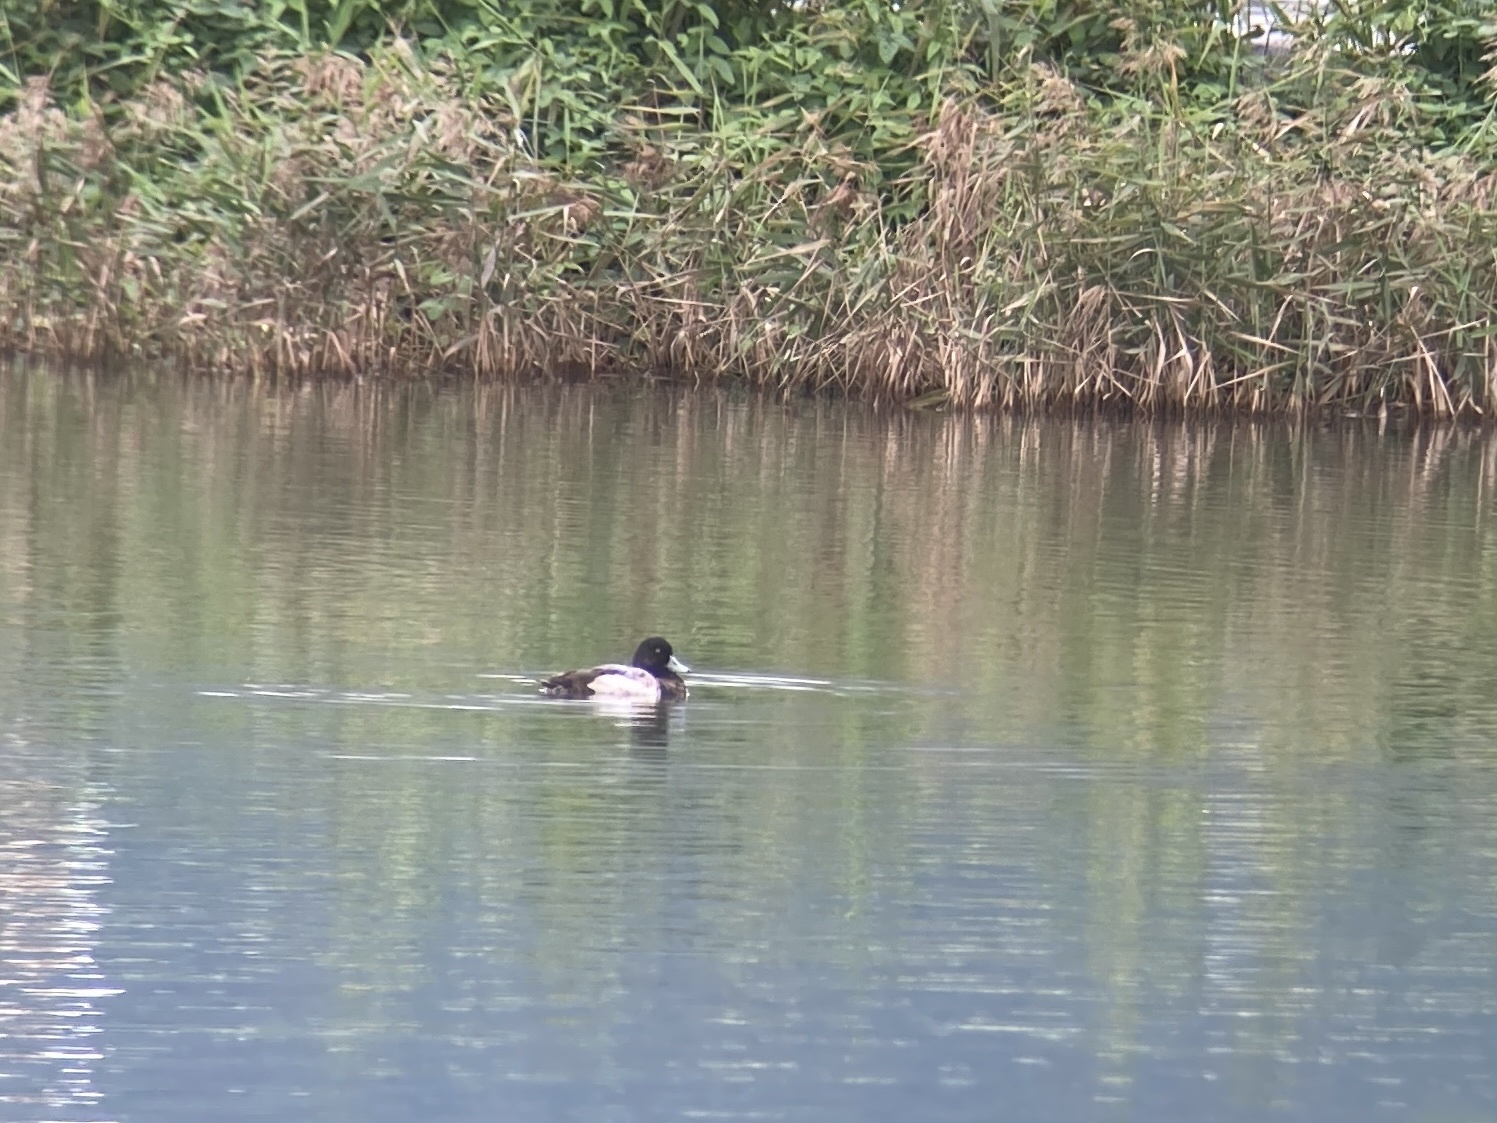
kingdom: Animalia
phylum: Chordata
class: Aves
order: Anseriformes
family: Anatidae
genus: Aythya
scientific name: Aythya marila
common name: Greater scaup
